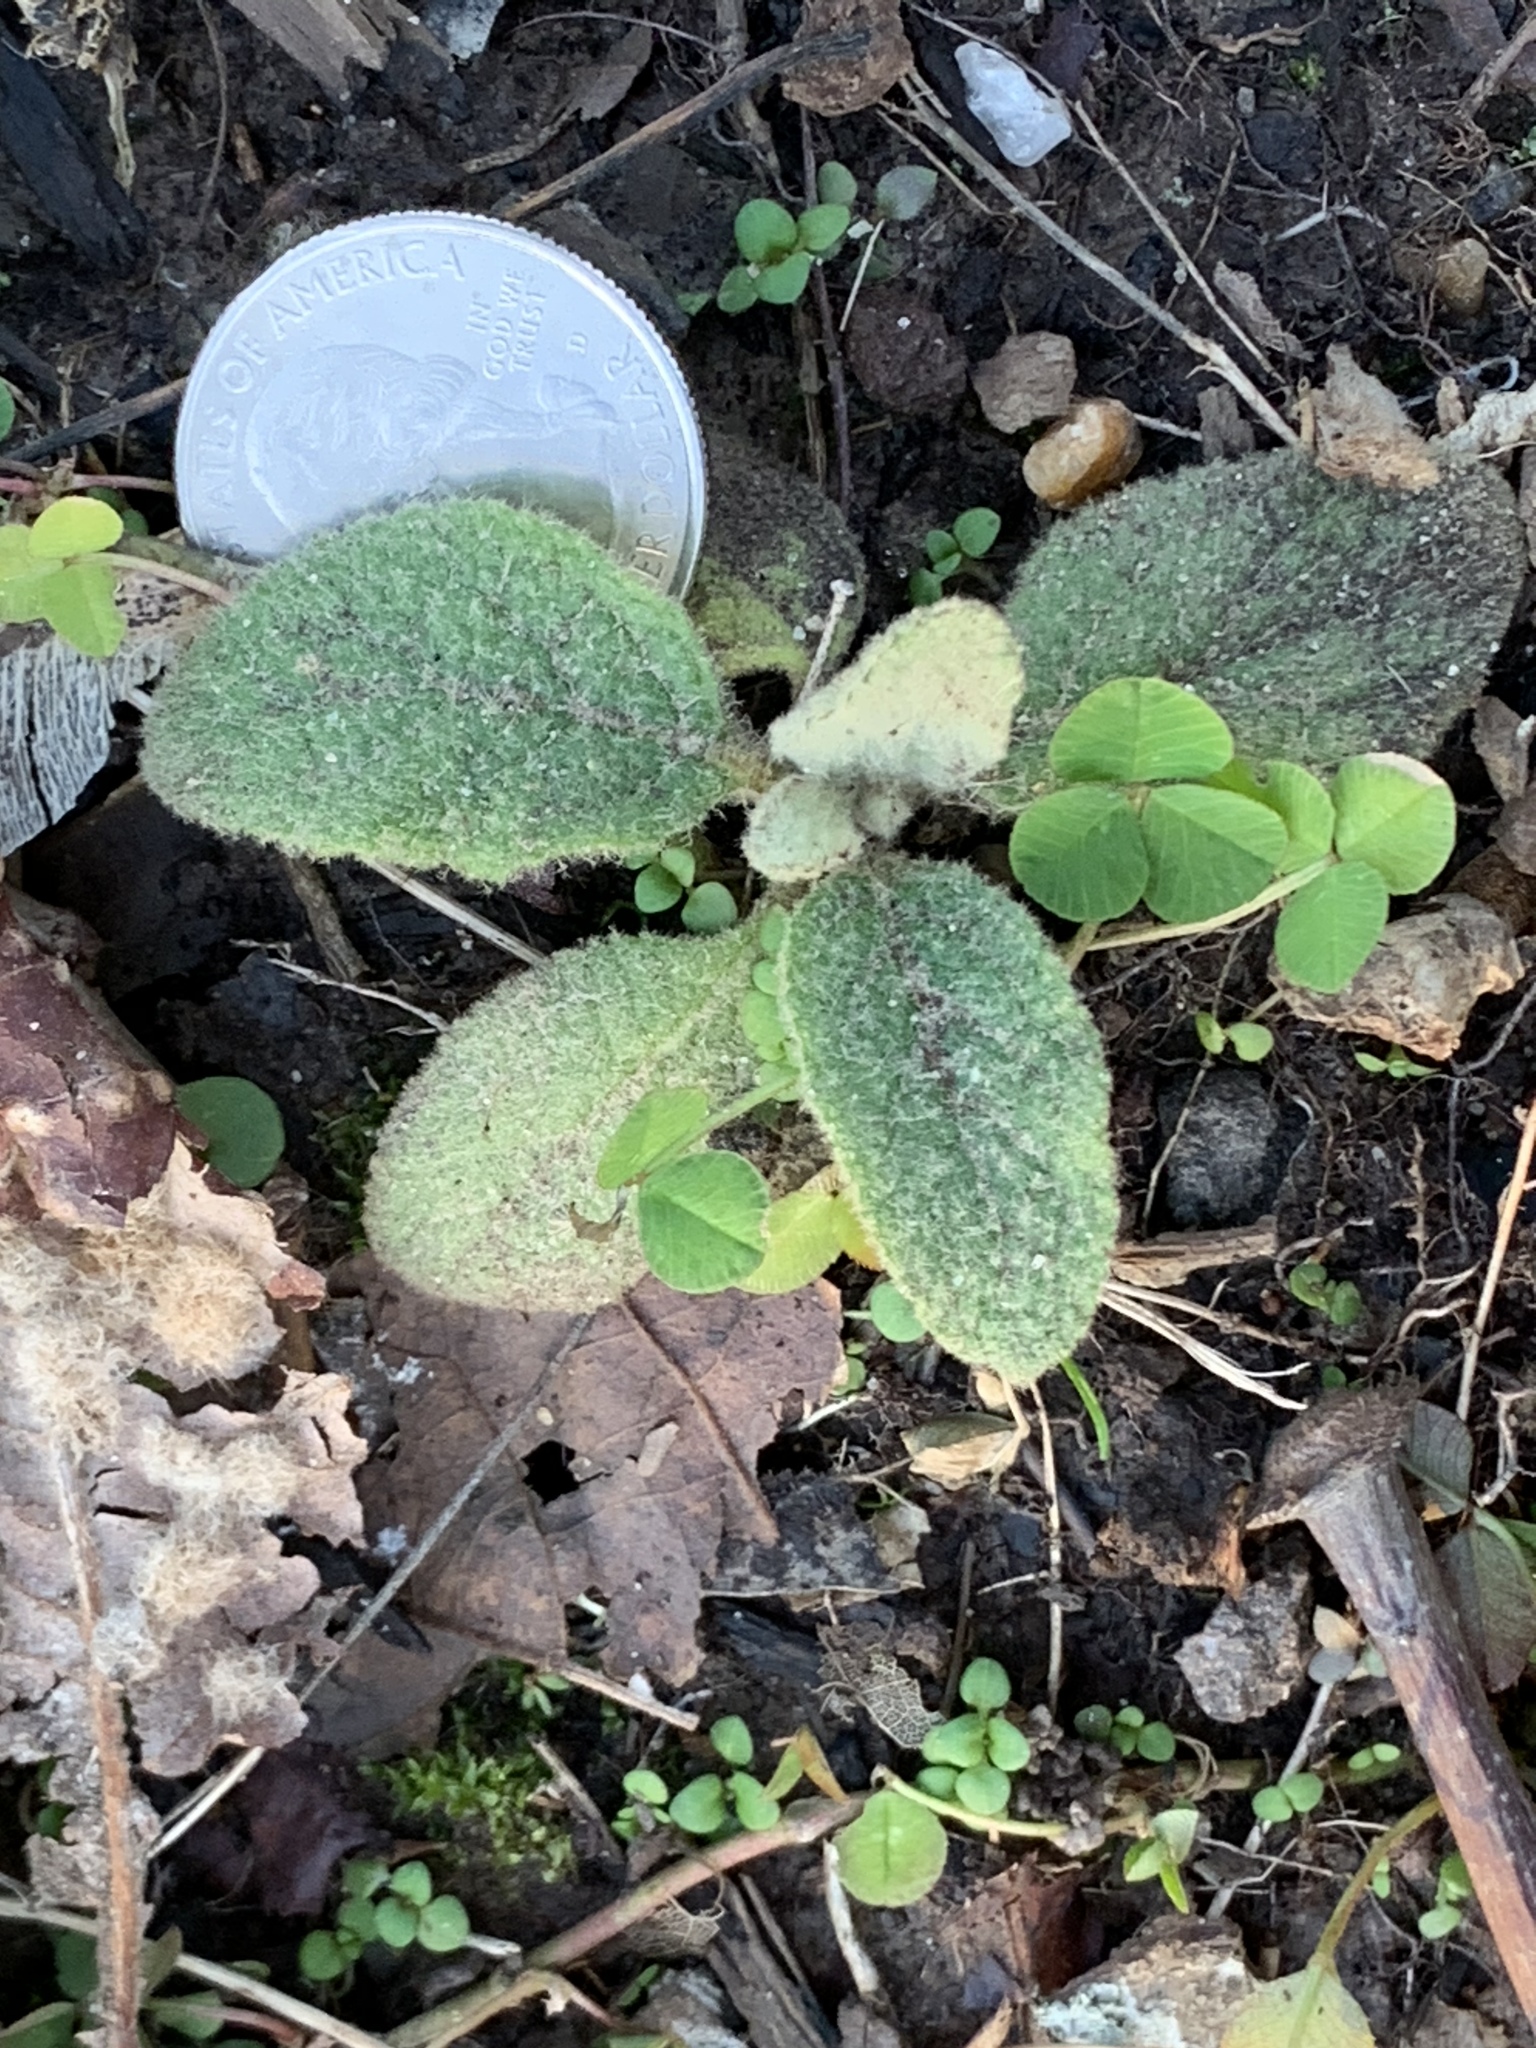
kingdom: Plantae
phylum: Tracheophyta
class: Magnoliopsida
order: Lamiales
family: Scrophulariaceae
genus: Verbascum
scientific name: Verbascum thapsus
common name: Common mullein
